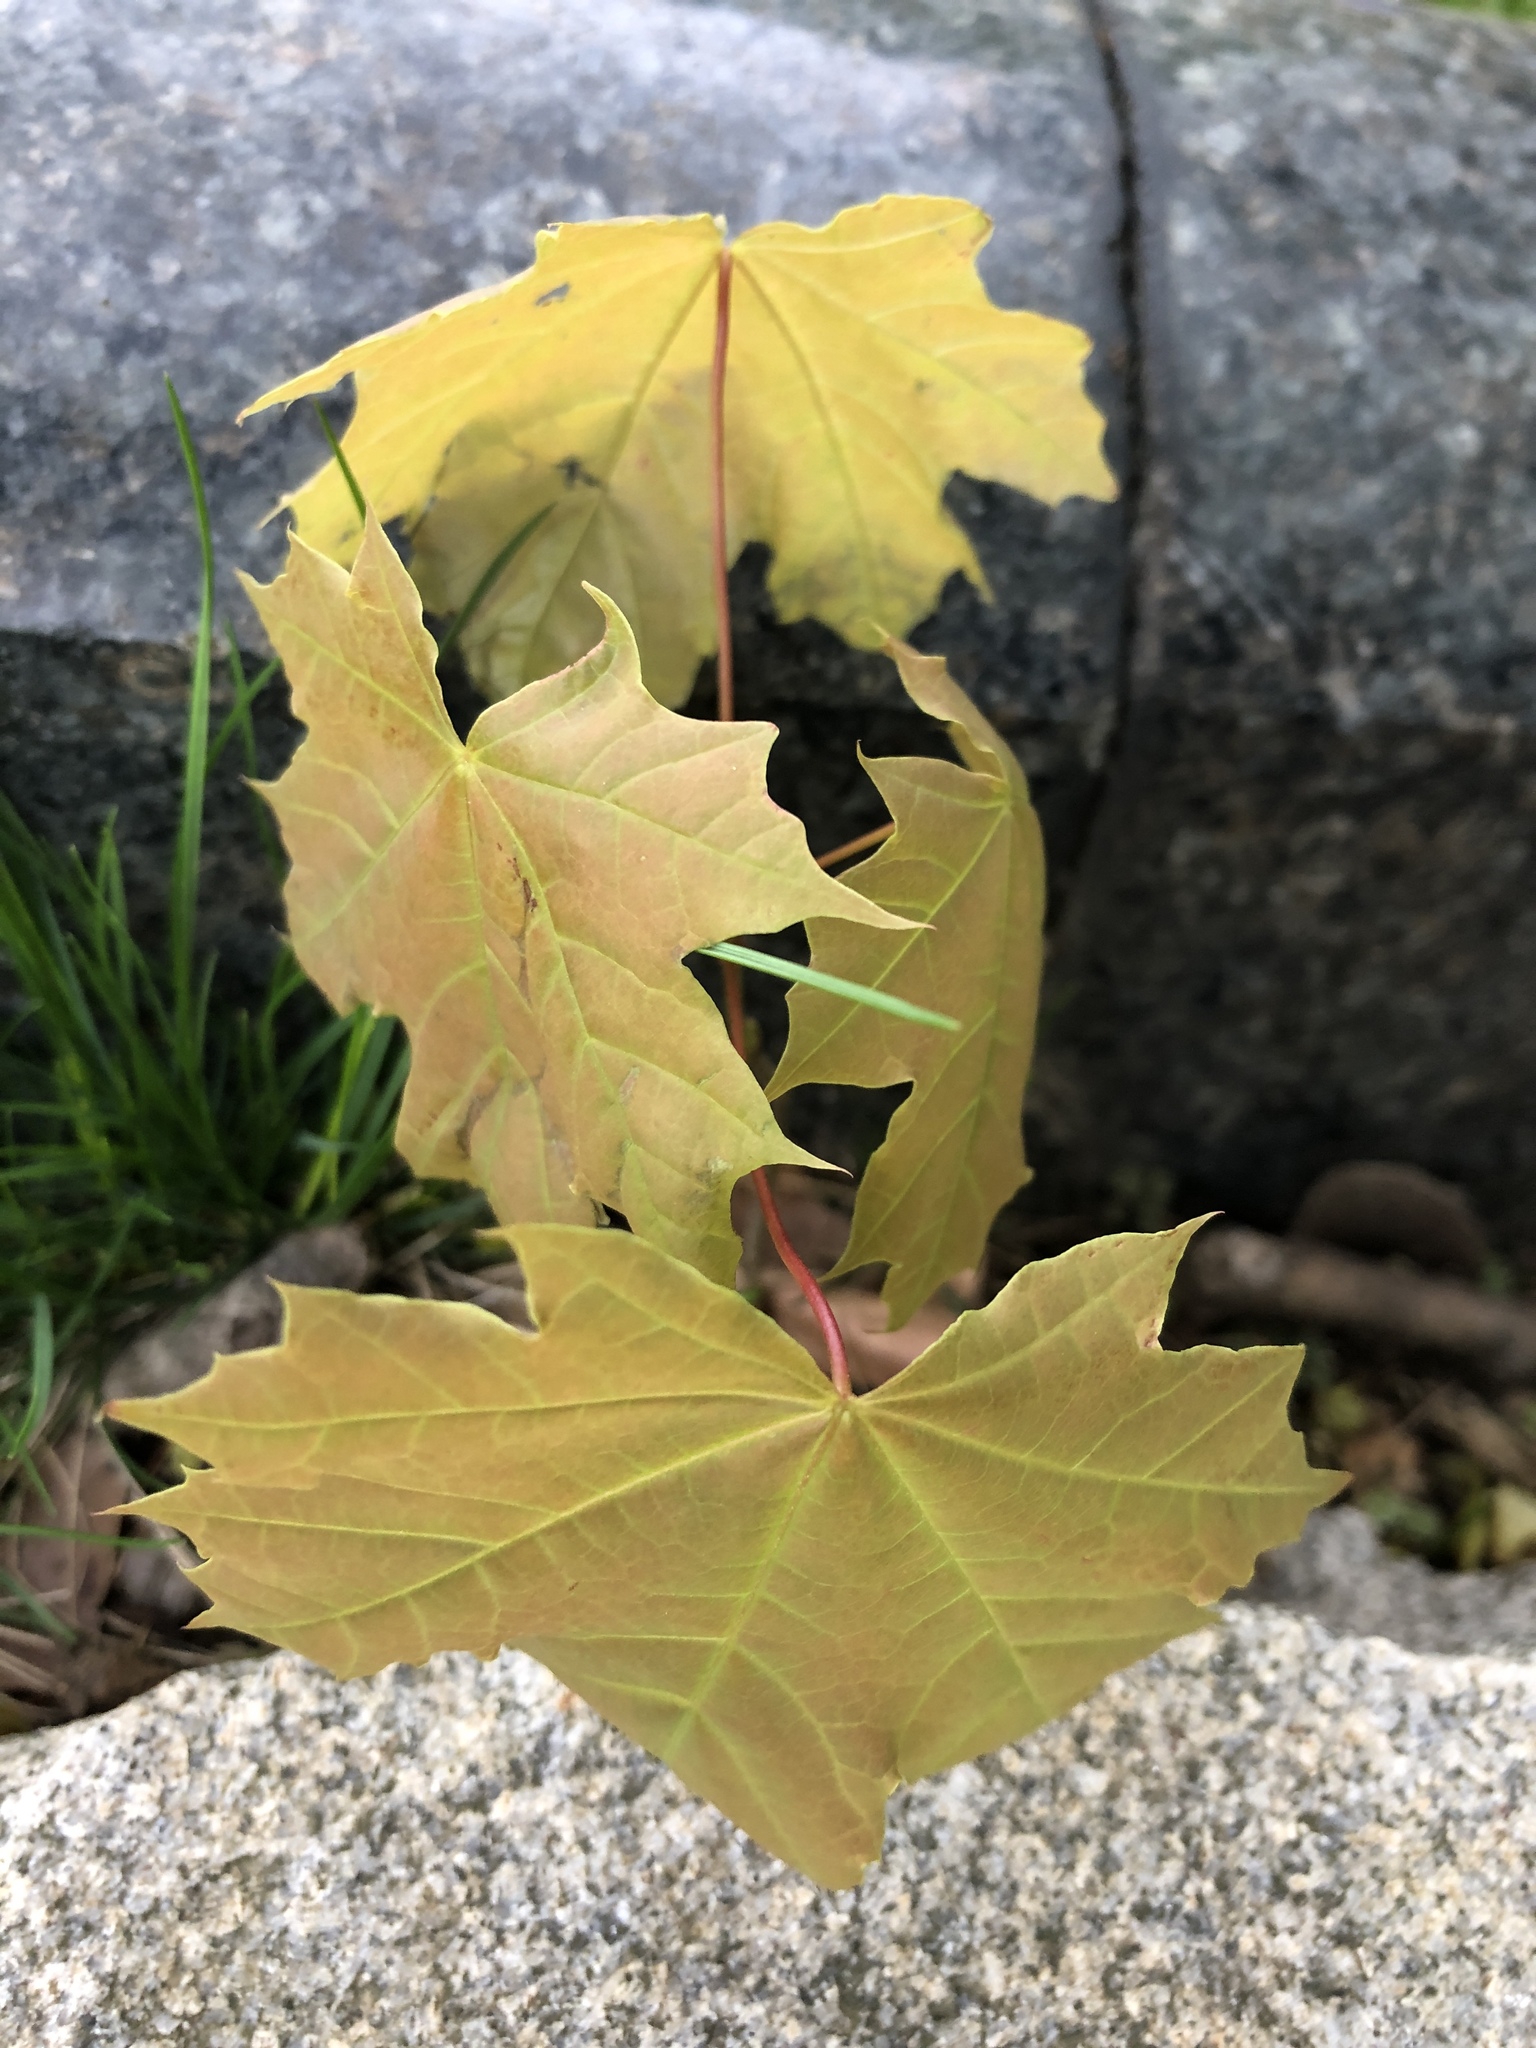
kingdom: Plantae
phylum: Tracheophyta
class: Magnoliopsida
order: Sapindales
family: Sapindaceae
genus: Acer
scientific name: Acer platanoides
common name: Norway maple
